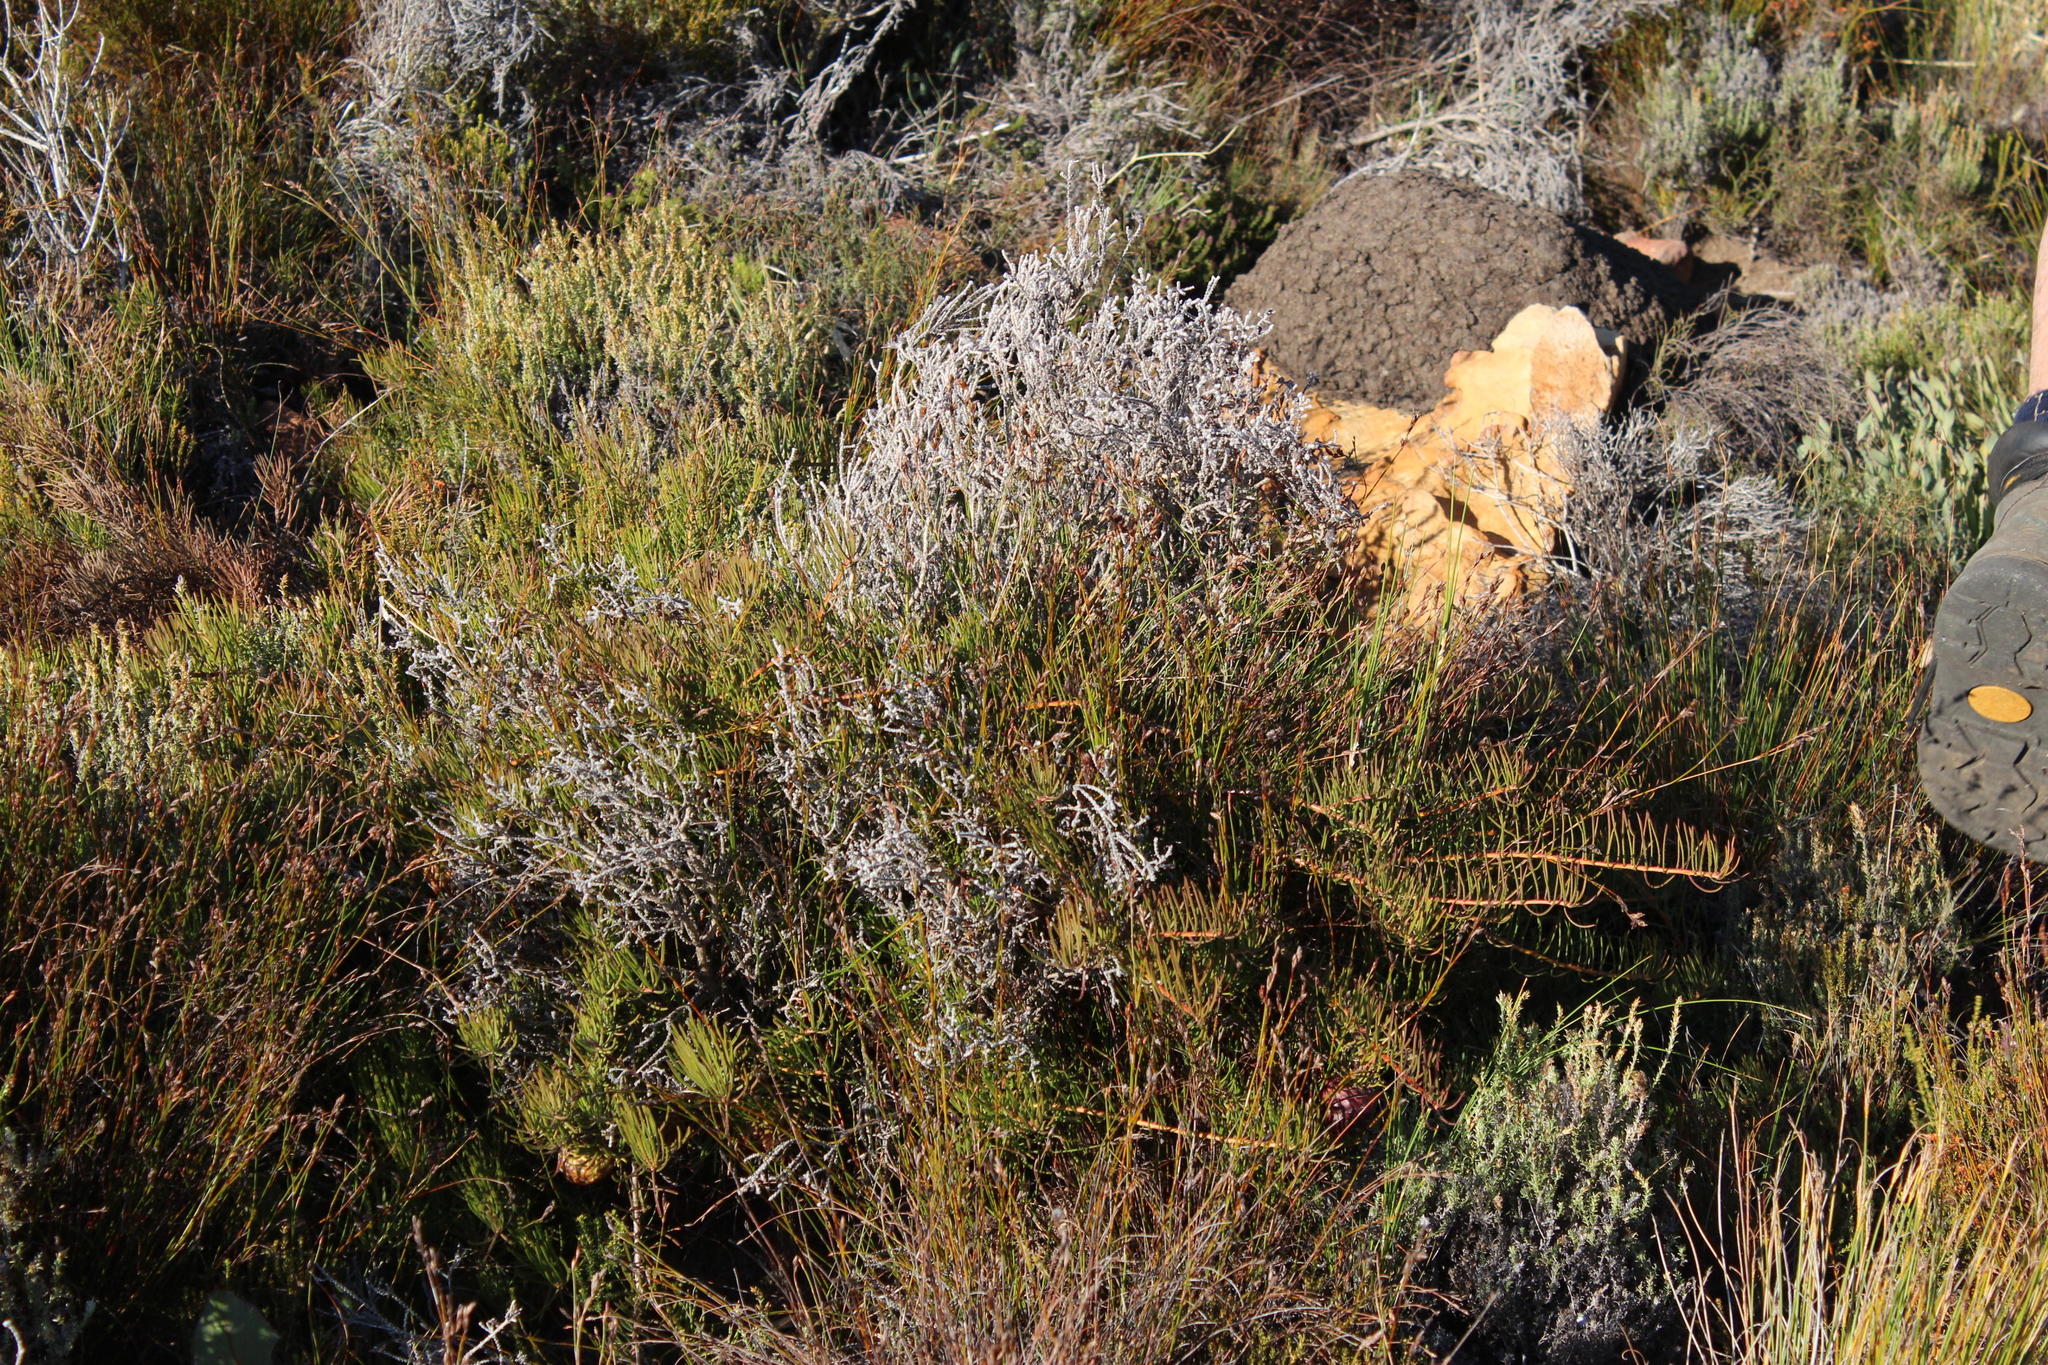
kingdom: Plantae
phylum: Tracheophyta
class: Magnoliopsida
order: Proteales
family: Proteaceae
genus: Protea
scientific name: Protea witzenbergiana
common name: Swan sugarbush
